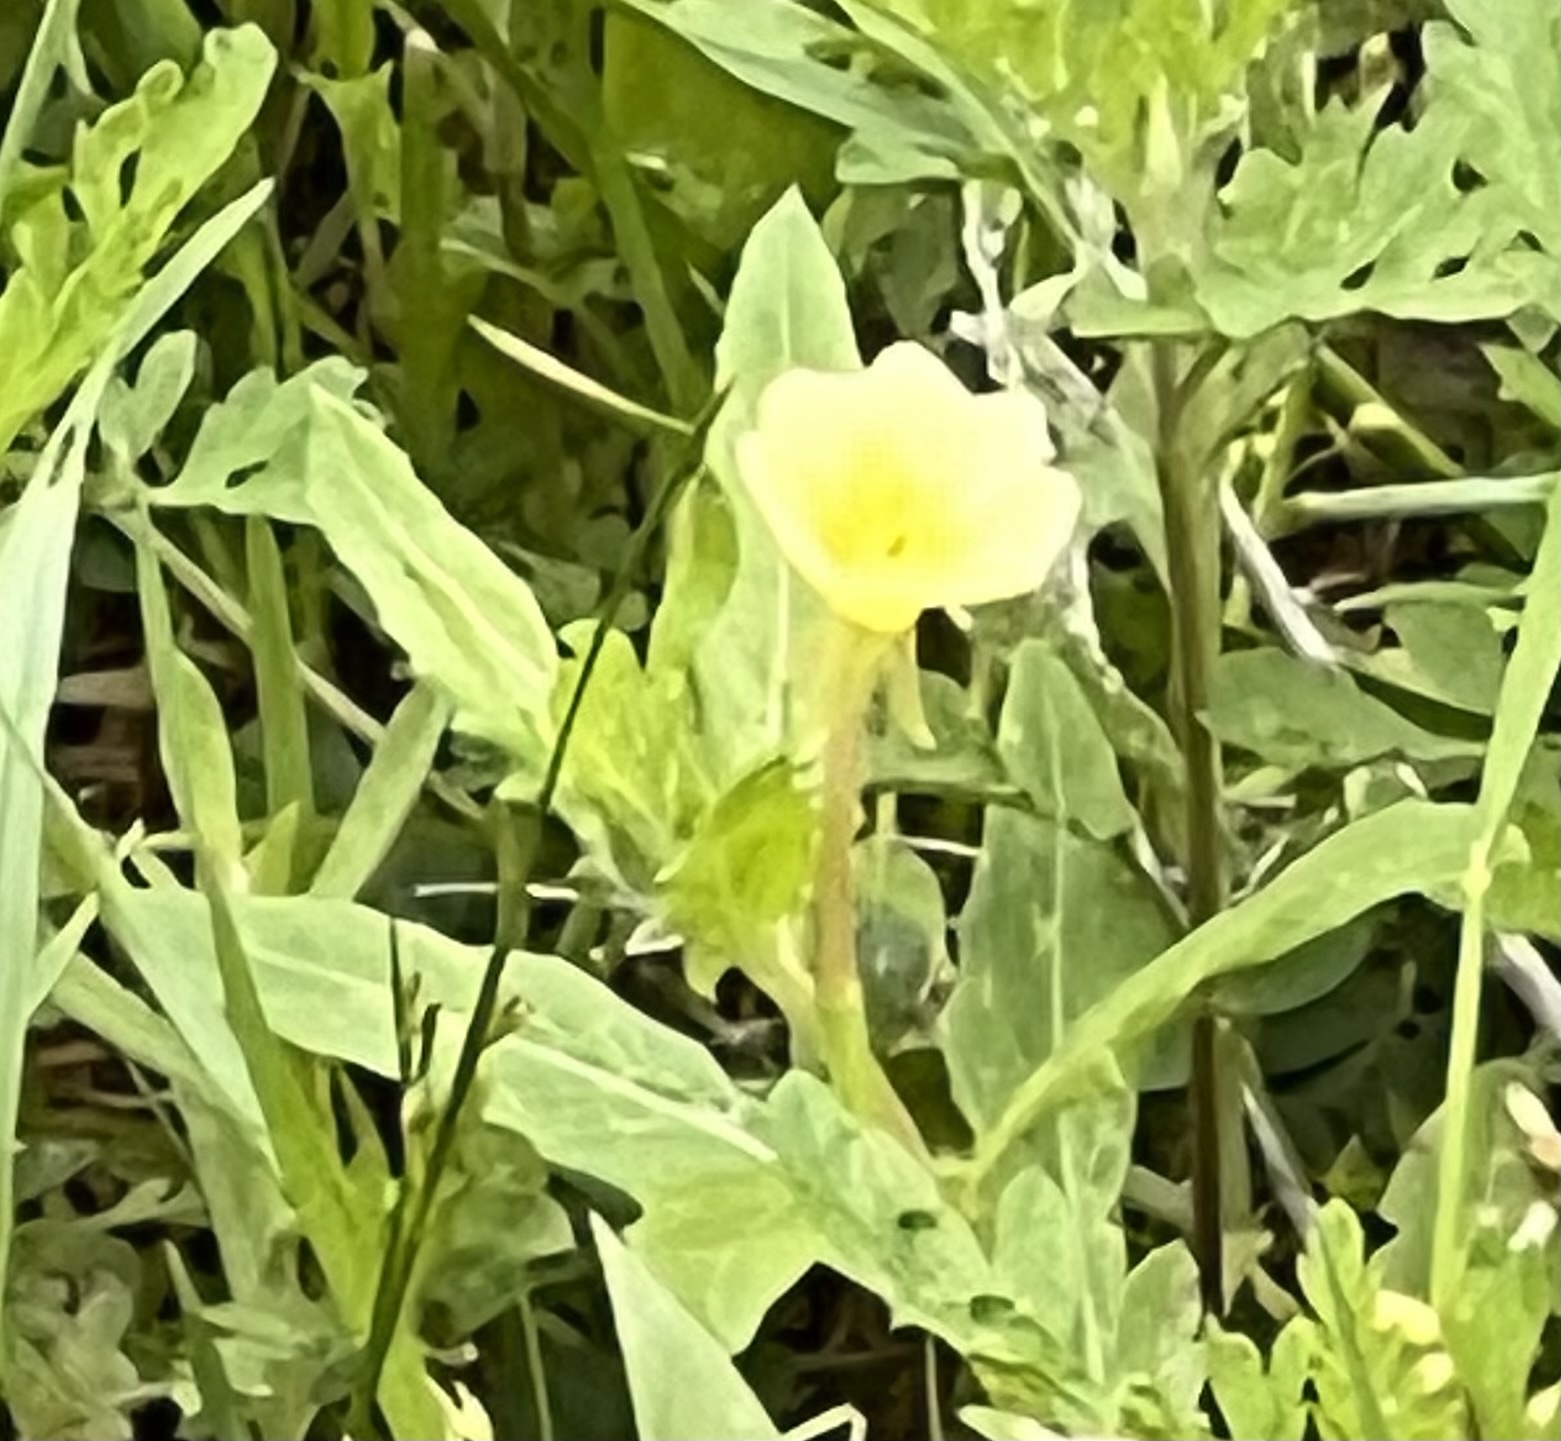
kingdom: Plantae
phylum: Tracheophyta
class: Magnoliopsida
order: Myrtales
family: Onagraceae
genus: Oenothera
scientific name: Oenothera laciniata
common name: Cut-leaved evening-primrose
